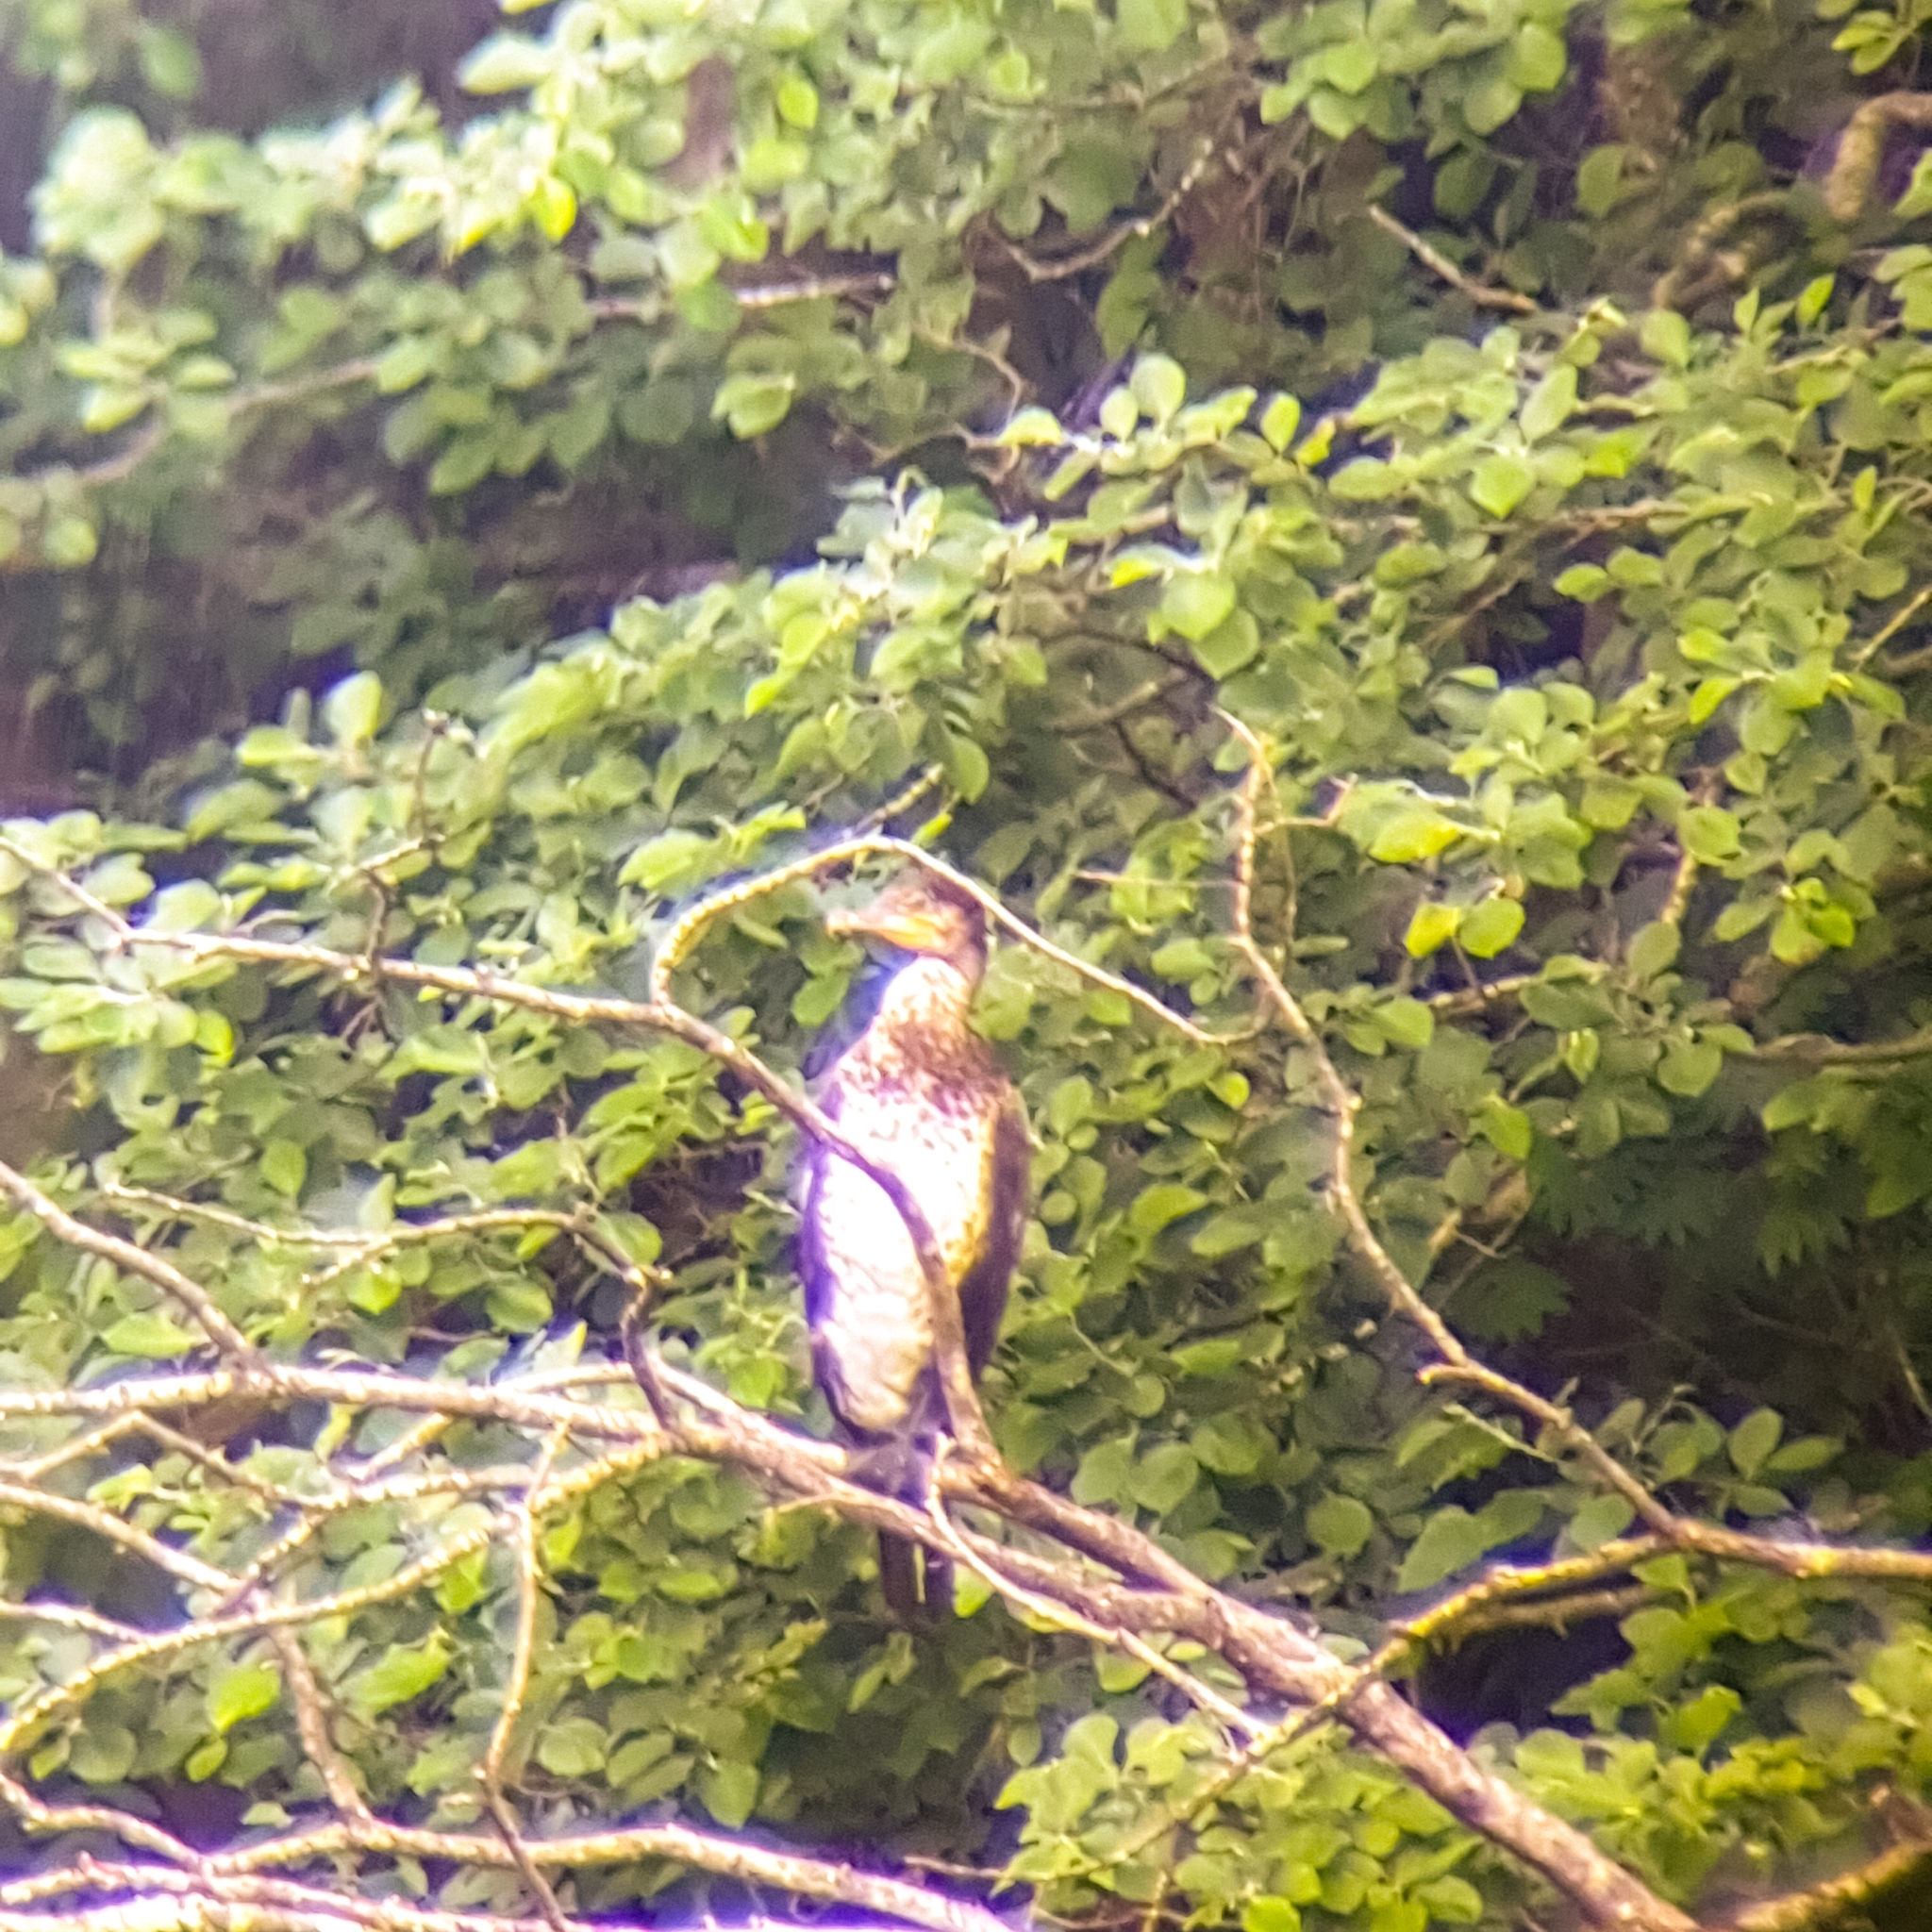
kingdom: Animalia
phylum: Chordata
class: Aves
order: Suliformes
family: Phalacrocoracidae
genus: Phalacrocorax
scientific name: Phalacrocorax carbo
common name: Great cormorant
